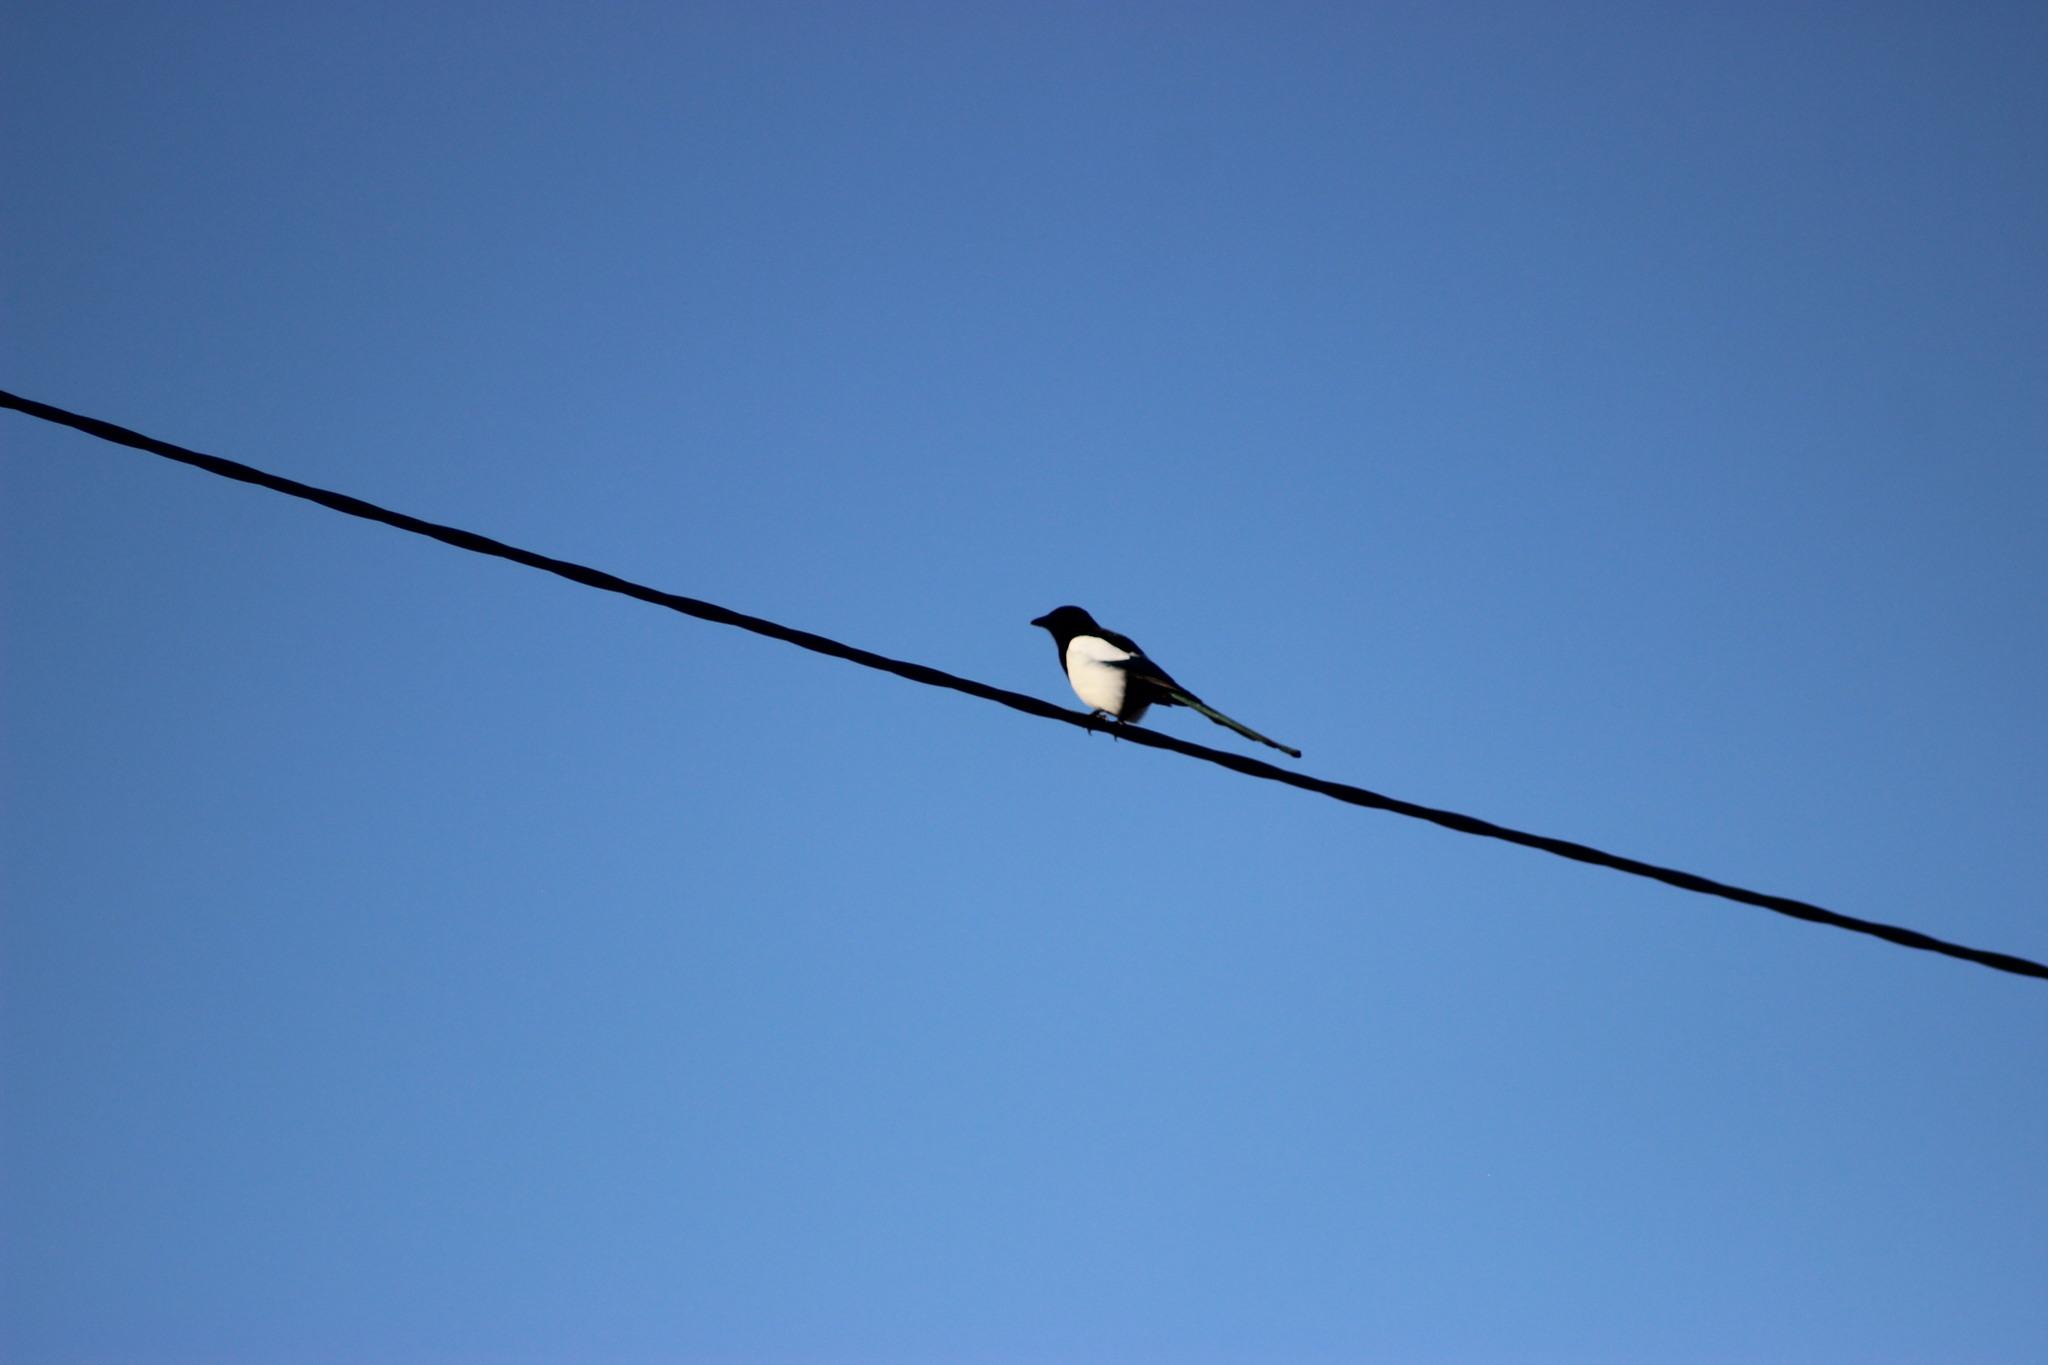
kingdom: Animalia
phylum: Chordata
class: Aves
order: Passeriformes
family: Corvidae
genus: Pica
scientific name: Pica pica
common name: Eurasian magpie
